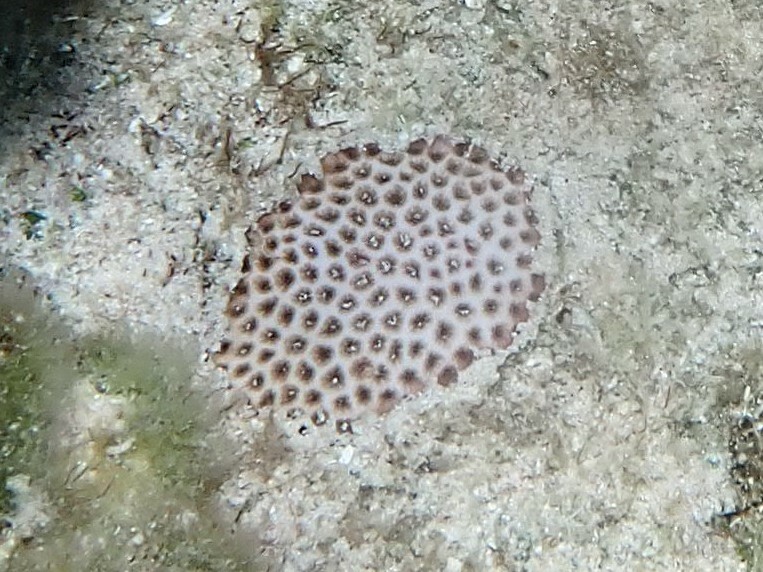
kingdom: Animalia
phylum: Cnidaria
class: Anthozoa
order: Scleractinia
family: Rhizangiidae
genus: Siderastrea
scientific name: Siderastrea radians
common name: Lesser starlet coral
